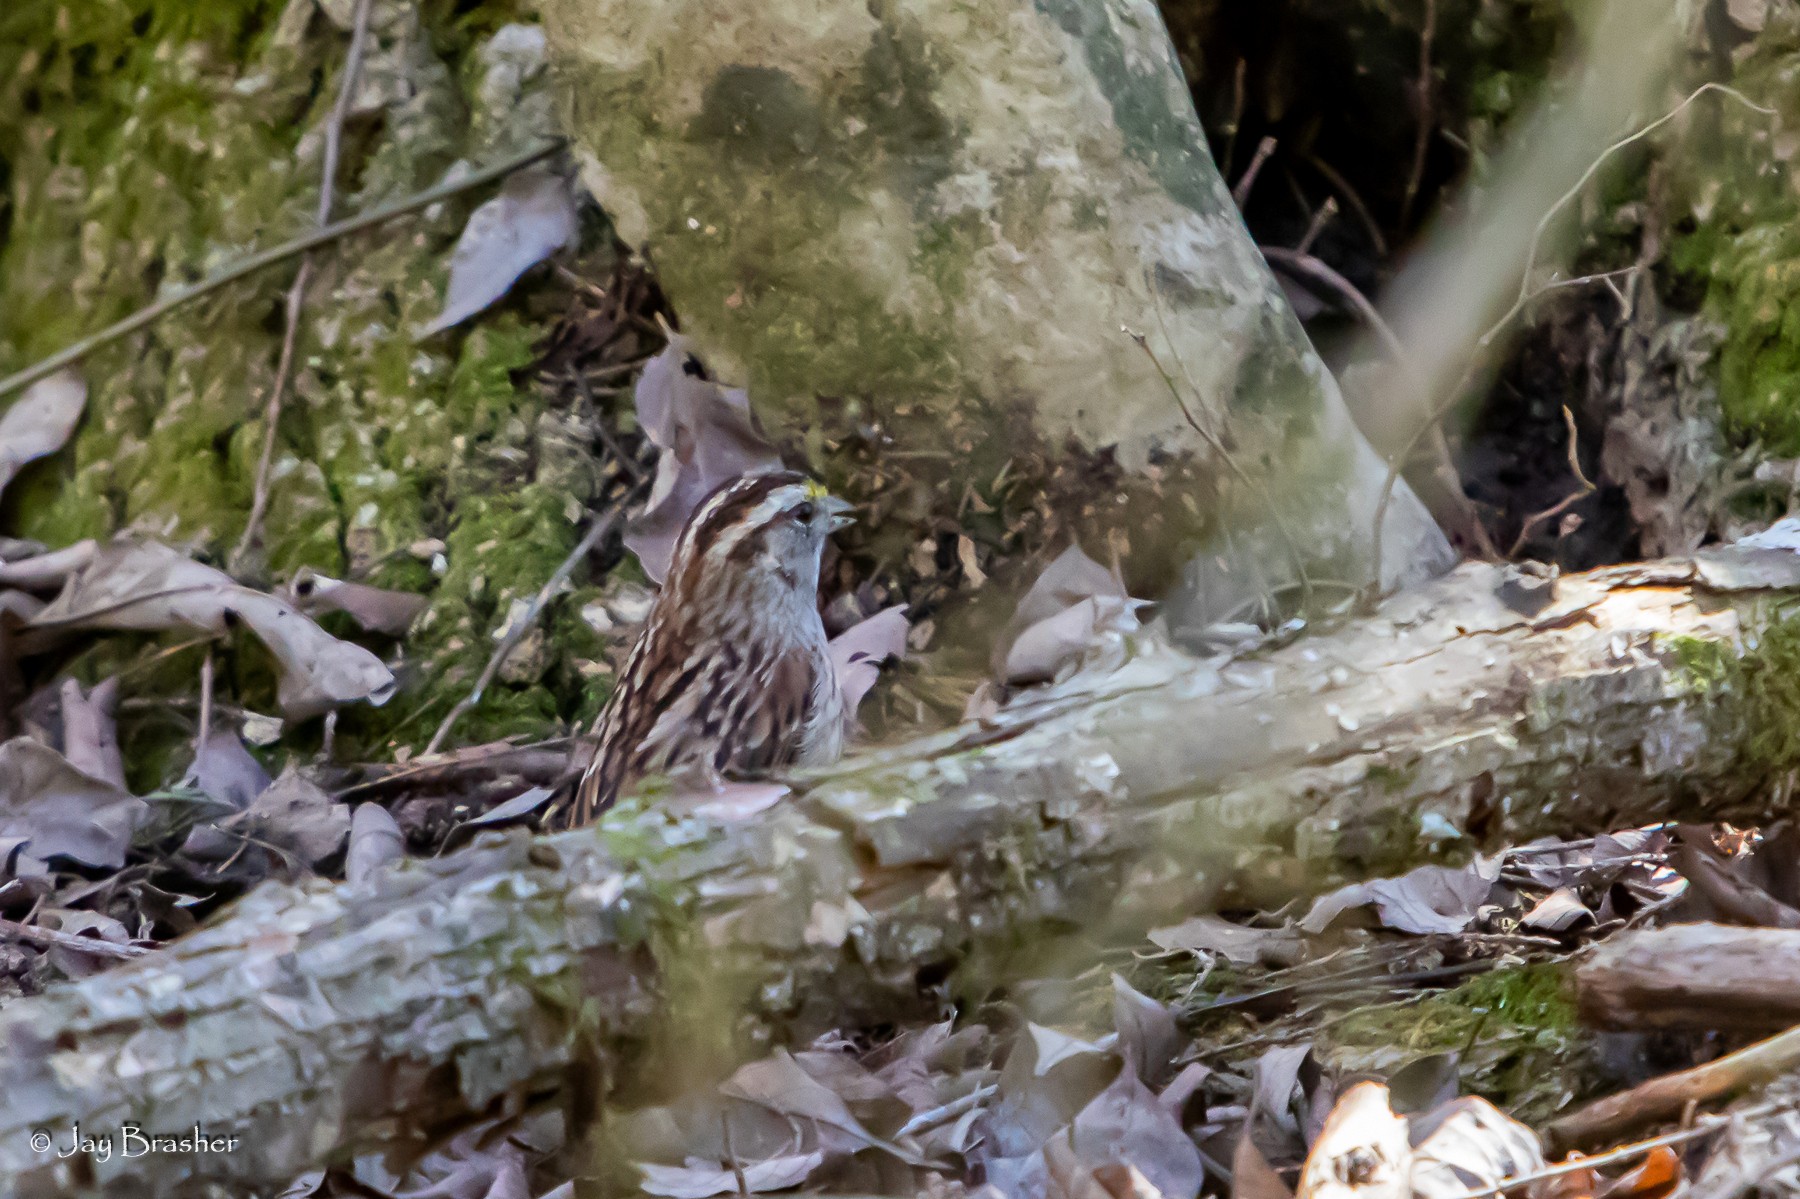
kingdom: Animalia
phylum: Chordata
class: Aves
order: Passeriformes
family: Passerellidae
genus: Zonotrichia
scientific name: Zonotrichia albicollis
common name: White-throated sparrow
